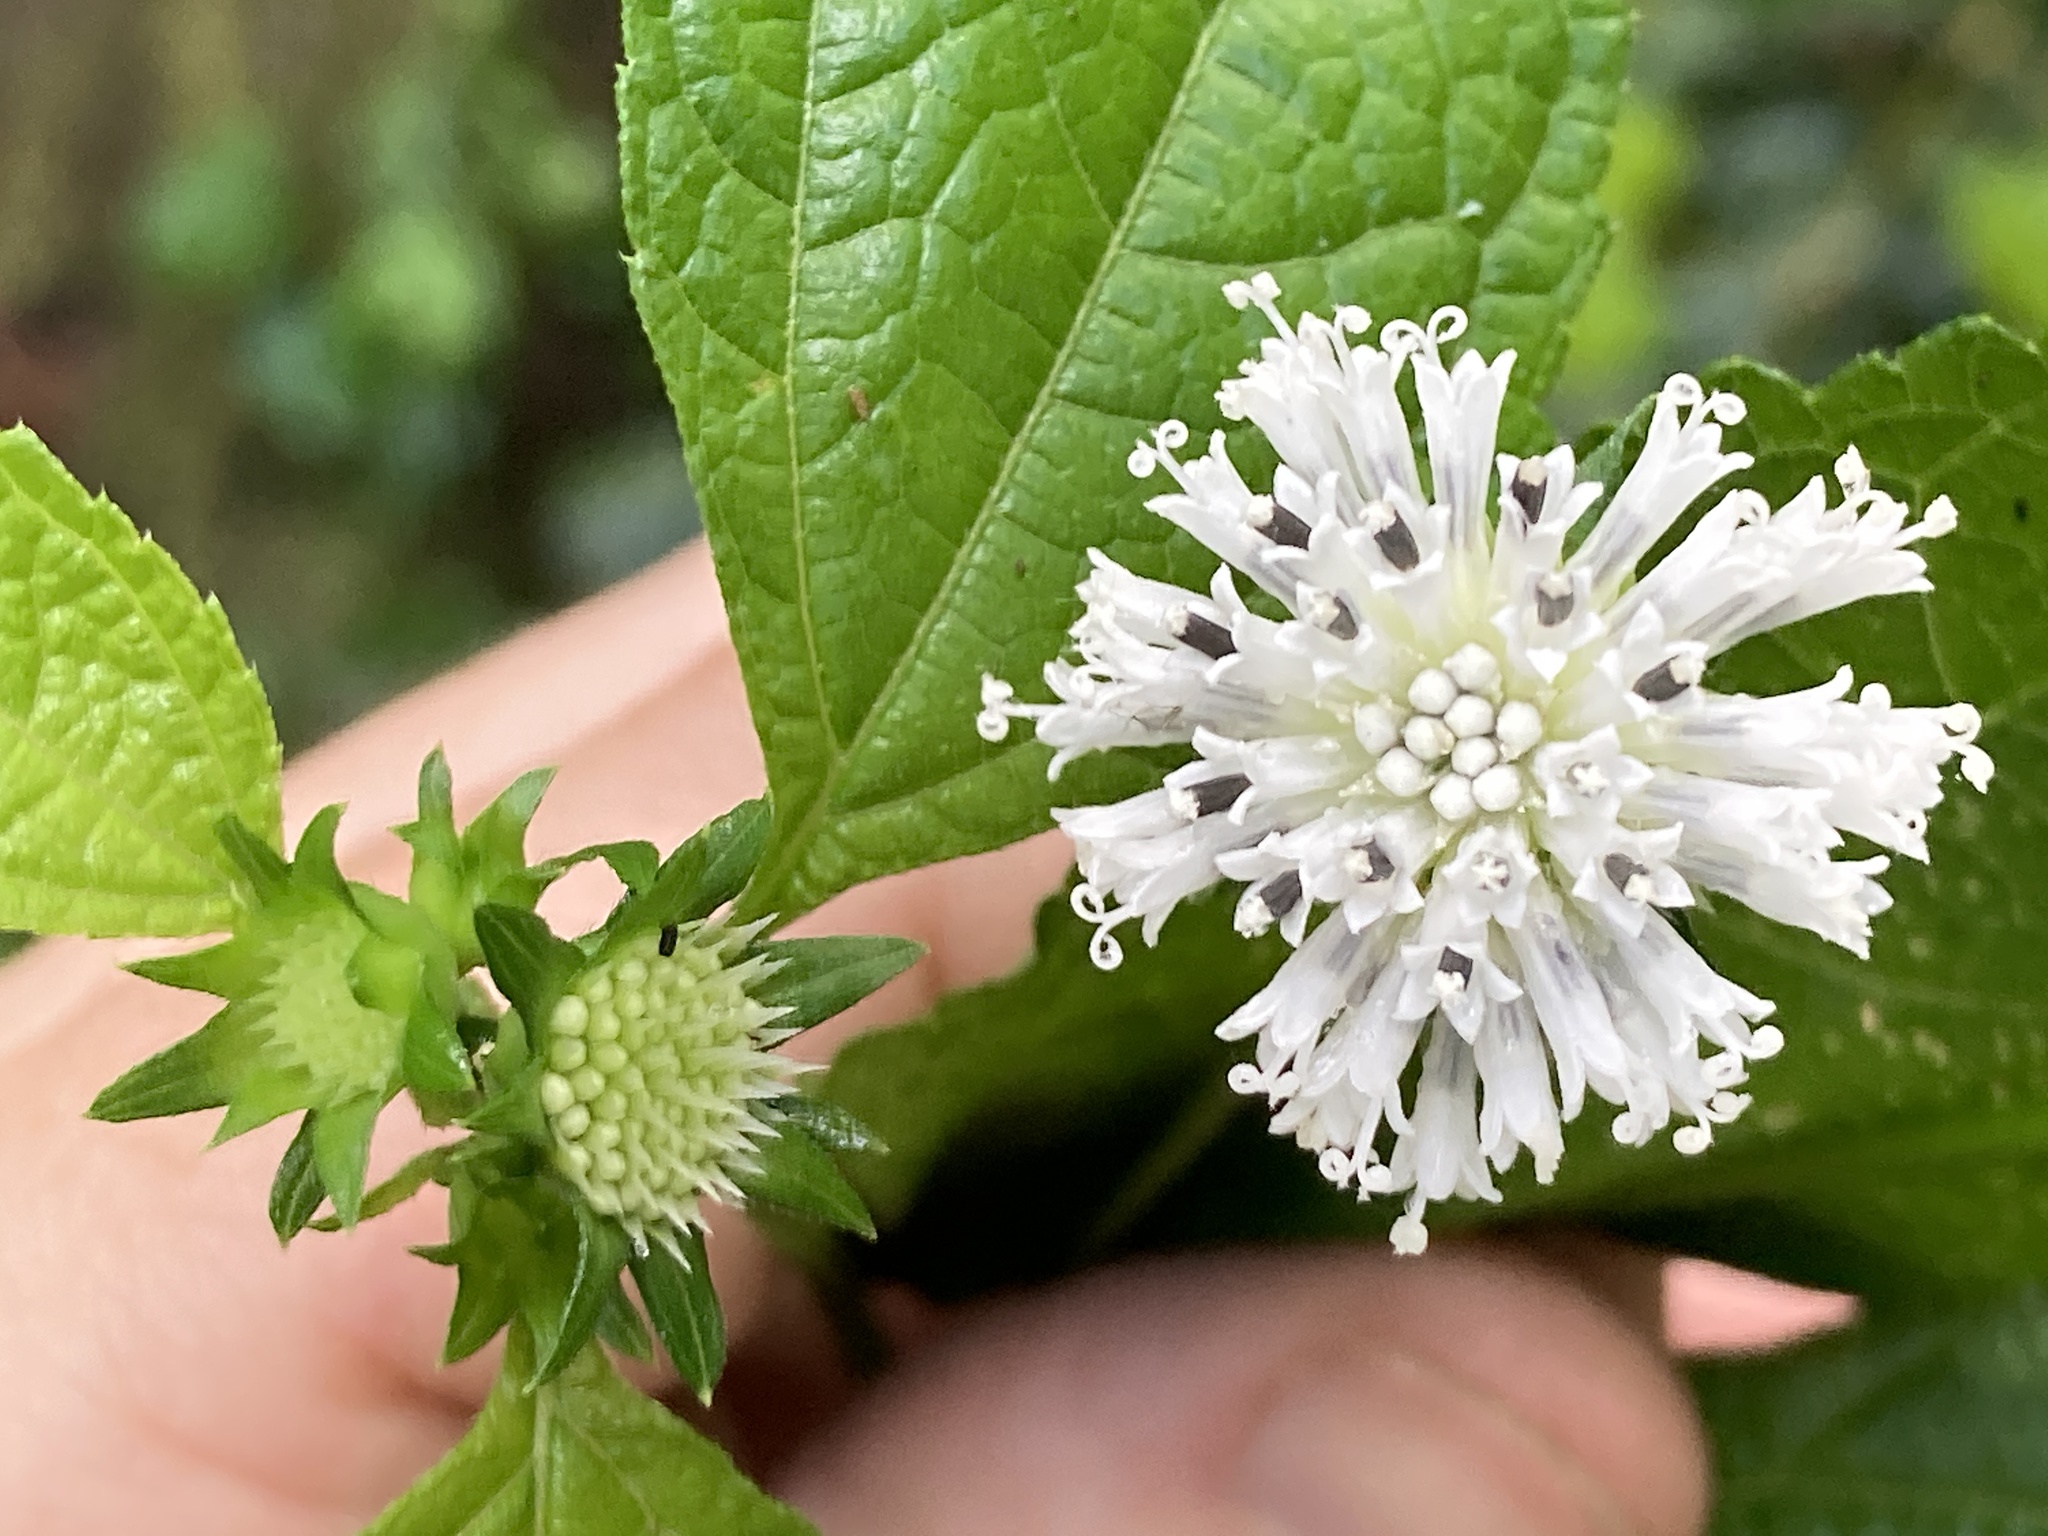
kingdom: Plantae
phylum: Tracheophyta
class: Magnoliopsida
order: Asterales
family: Asteraceae
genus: Melanthera
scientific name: Melanthera nivea
